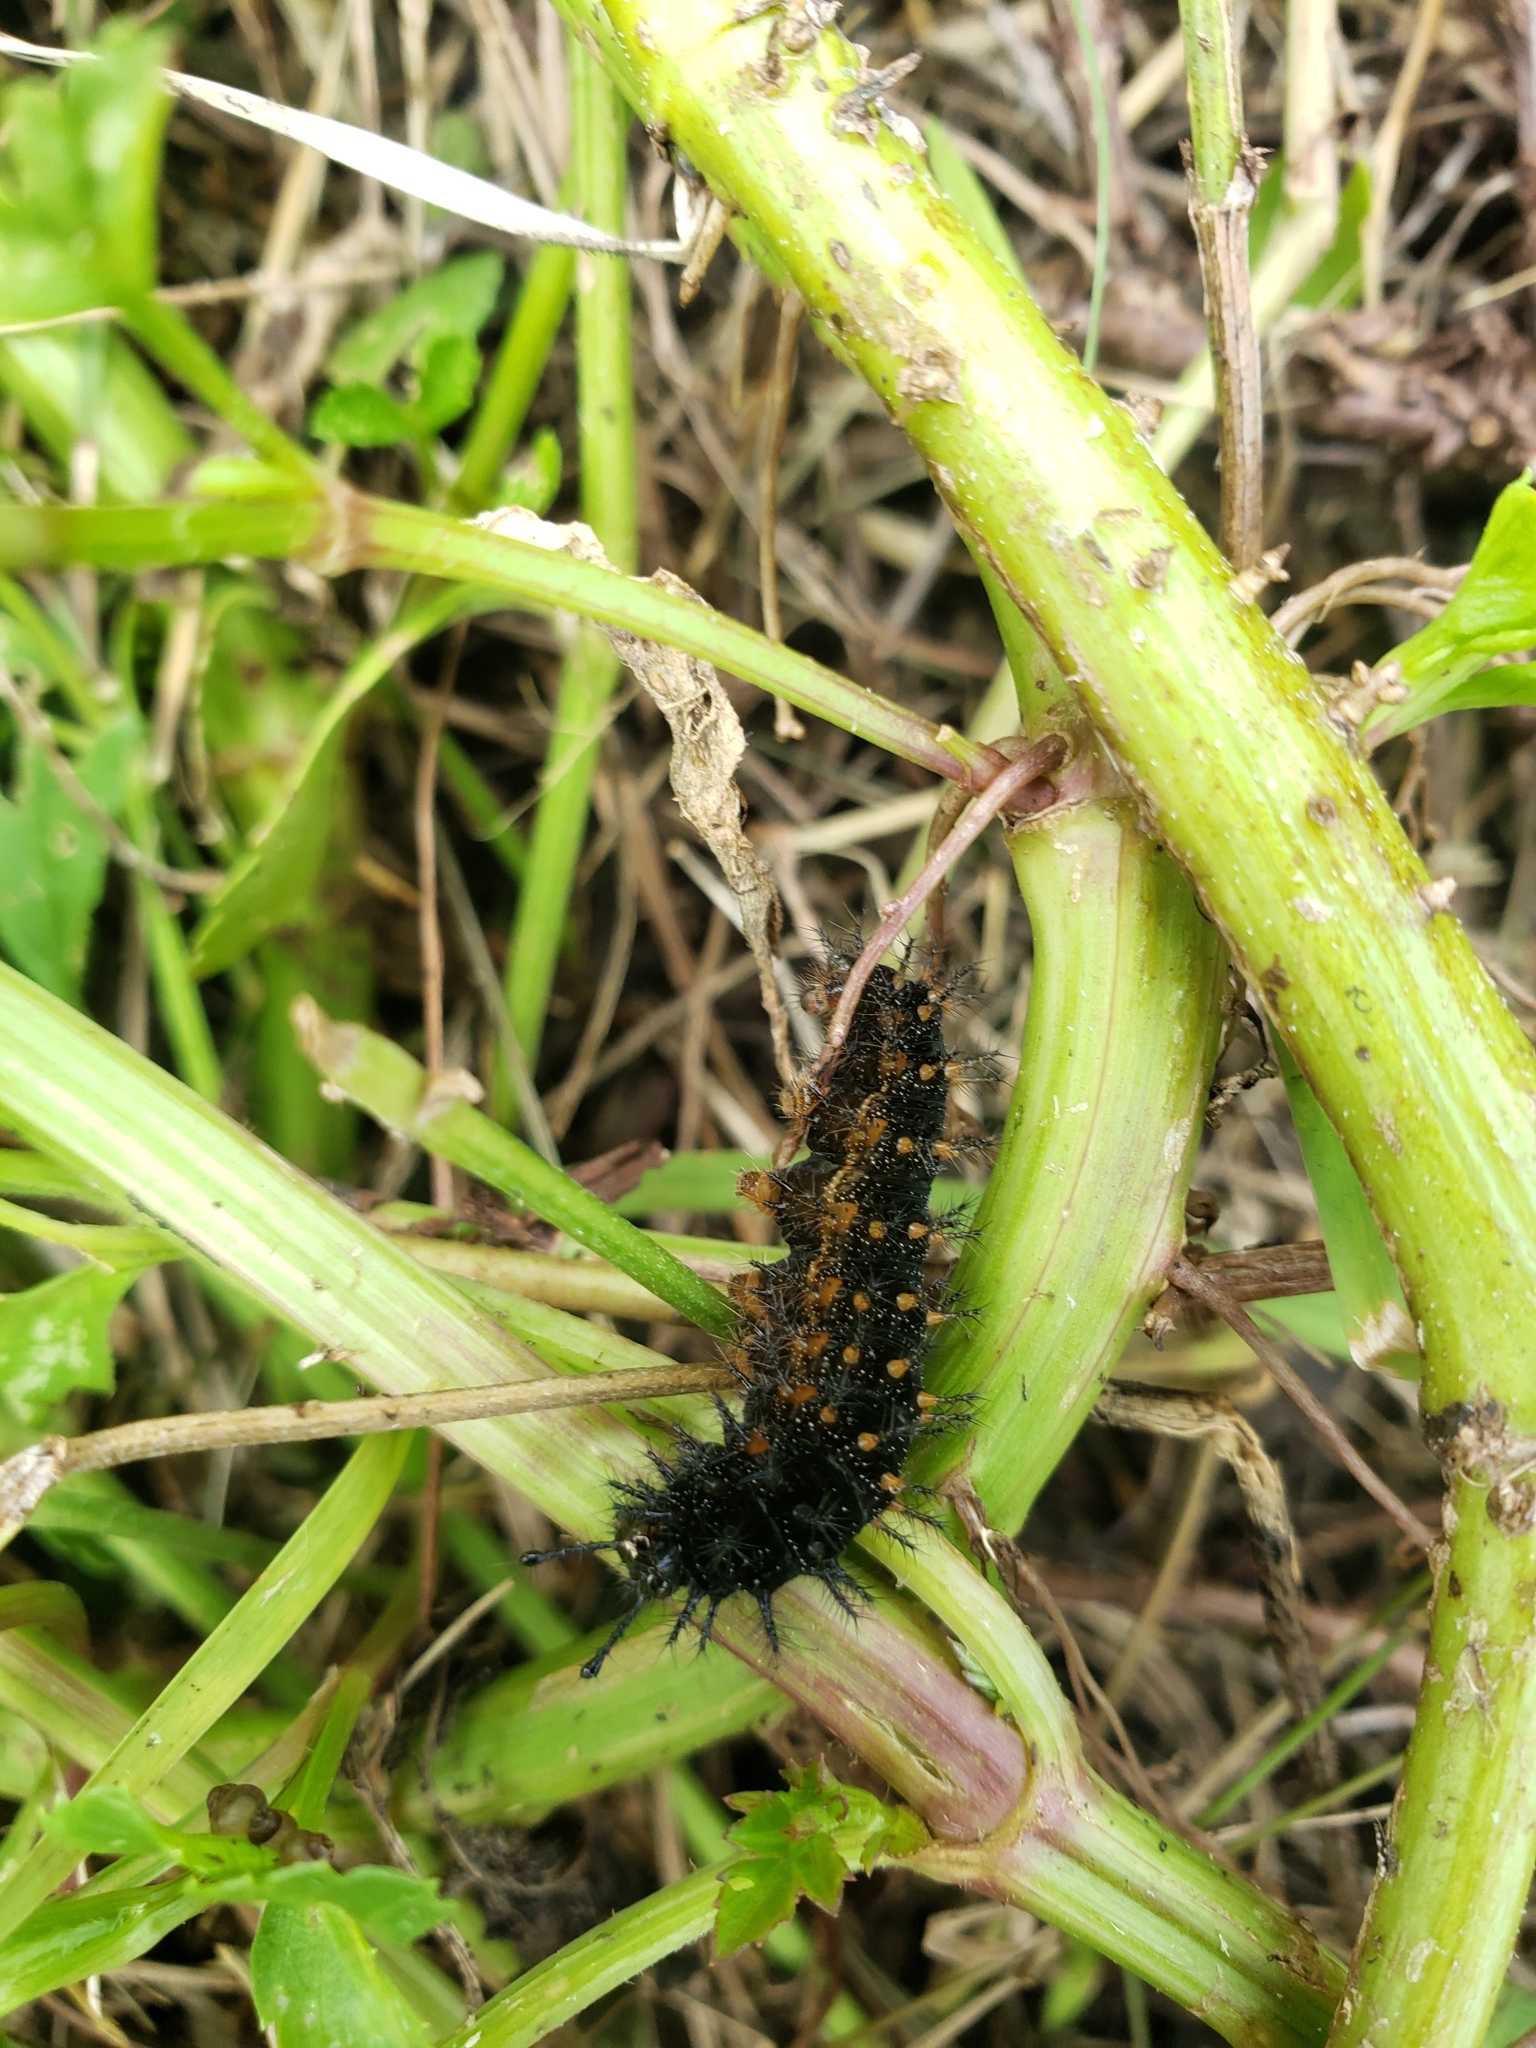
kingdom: Animalia
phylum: Arthropoda
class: Insecta
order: Lepidoptera
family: Nymphalidae
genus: Anartia
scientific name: Anartia jatrophae
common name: White peacock
